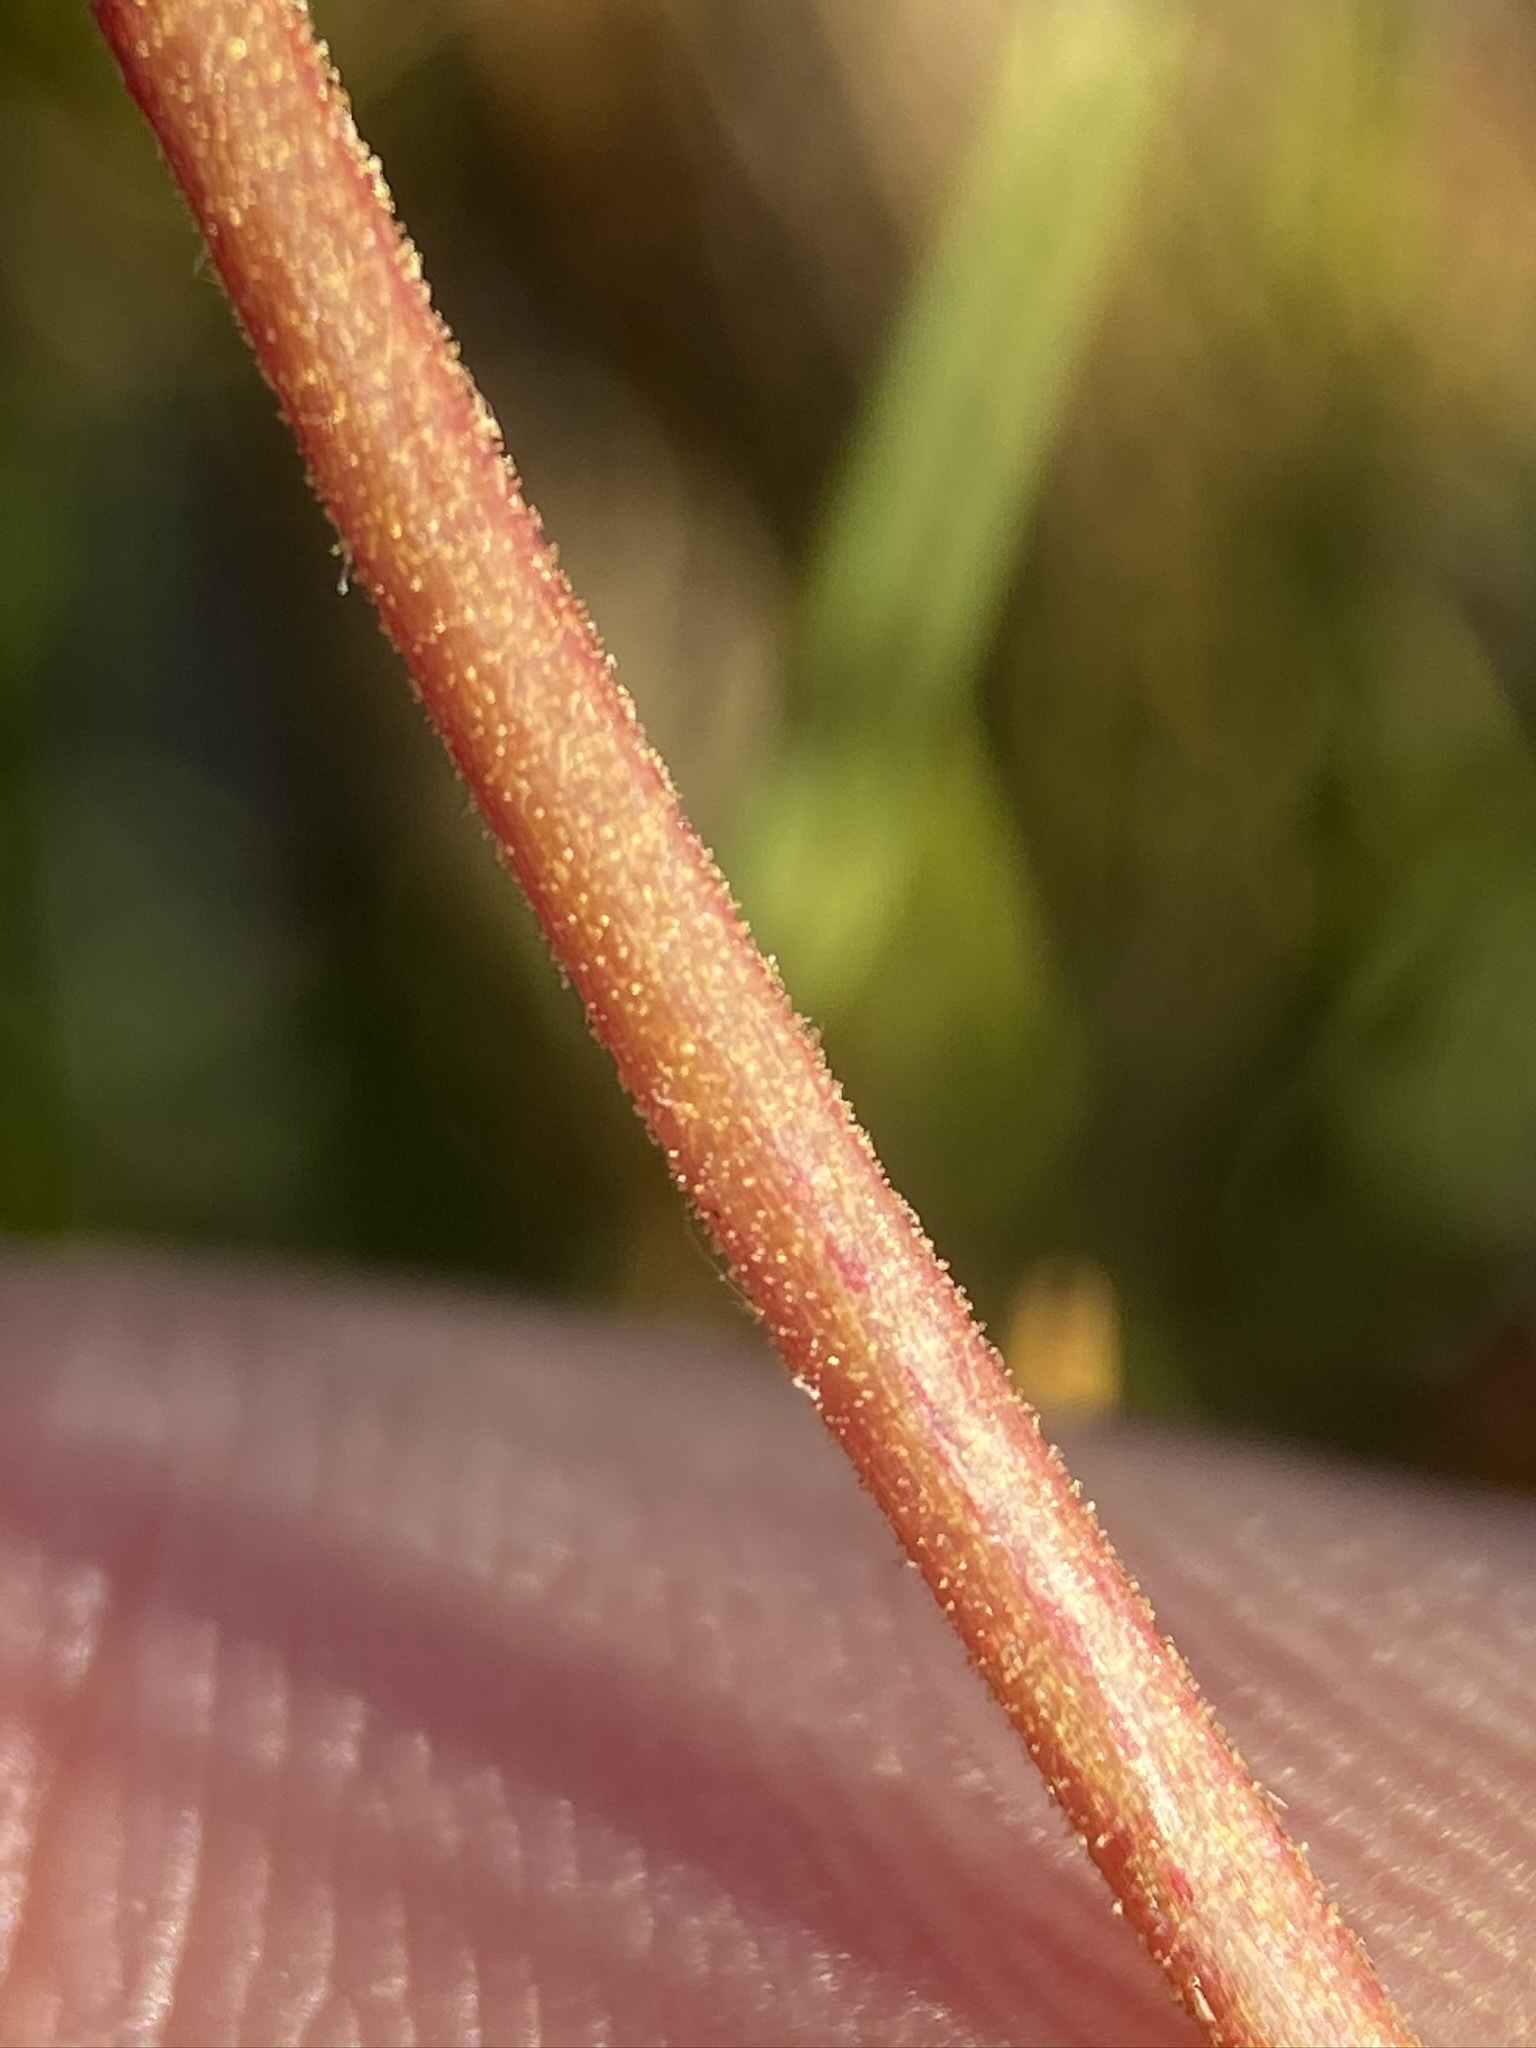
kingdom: Plantae
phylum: Tracheophyta
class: Magnoliopsida
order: Rosales
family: Rosaceae
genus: Potentilla
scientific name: Potentilla lycopodioides
